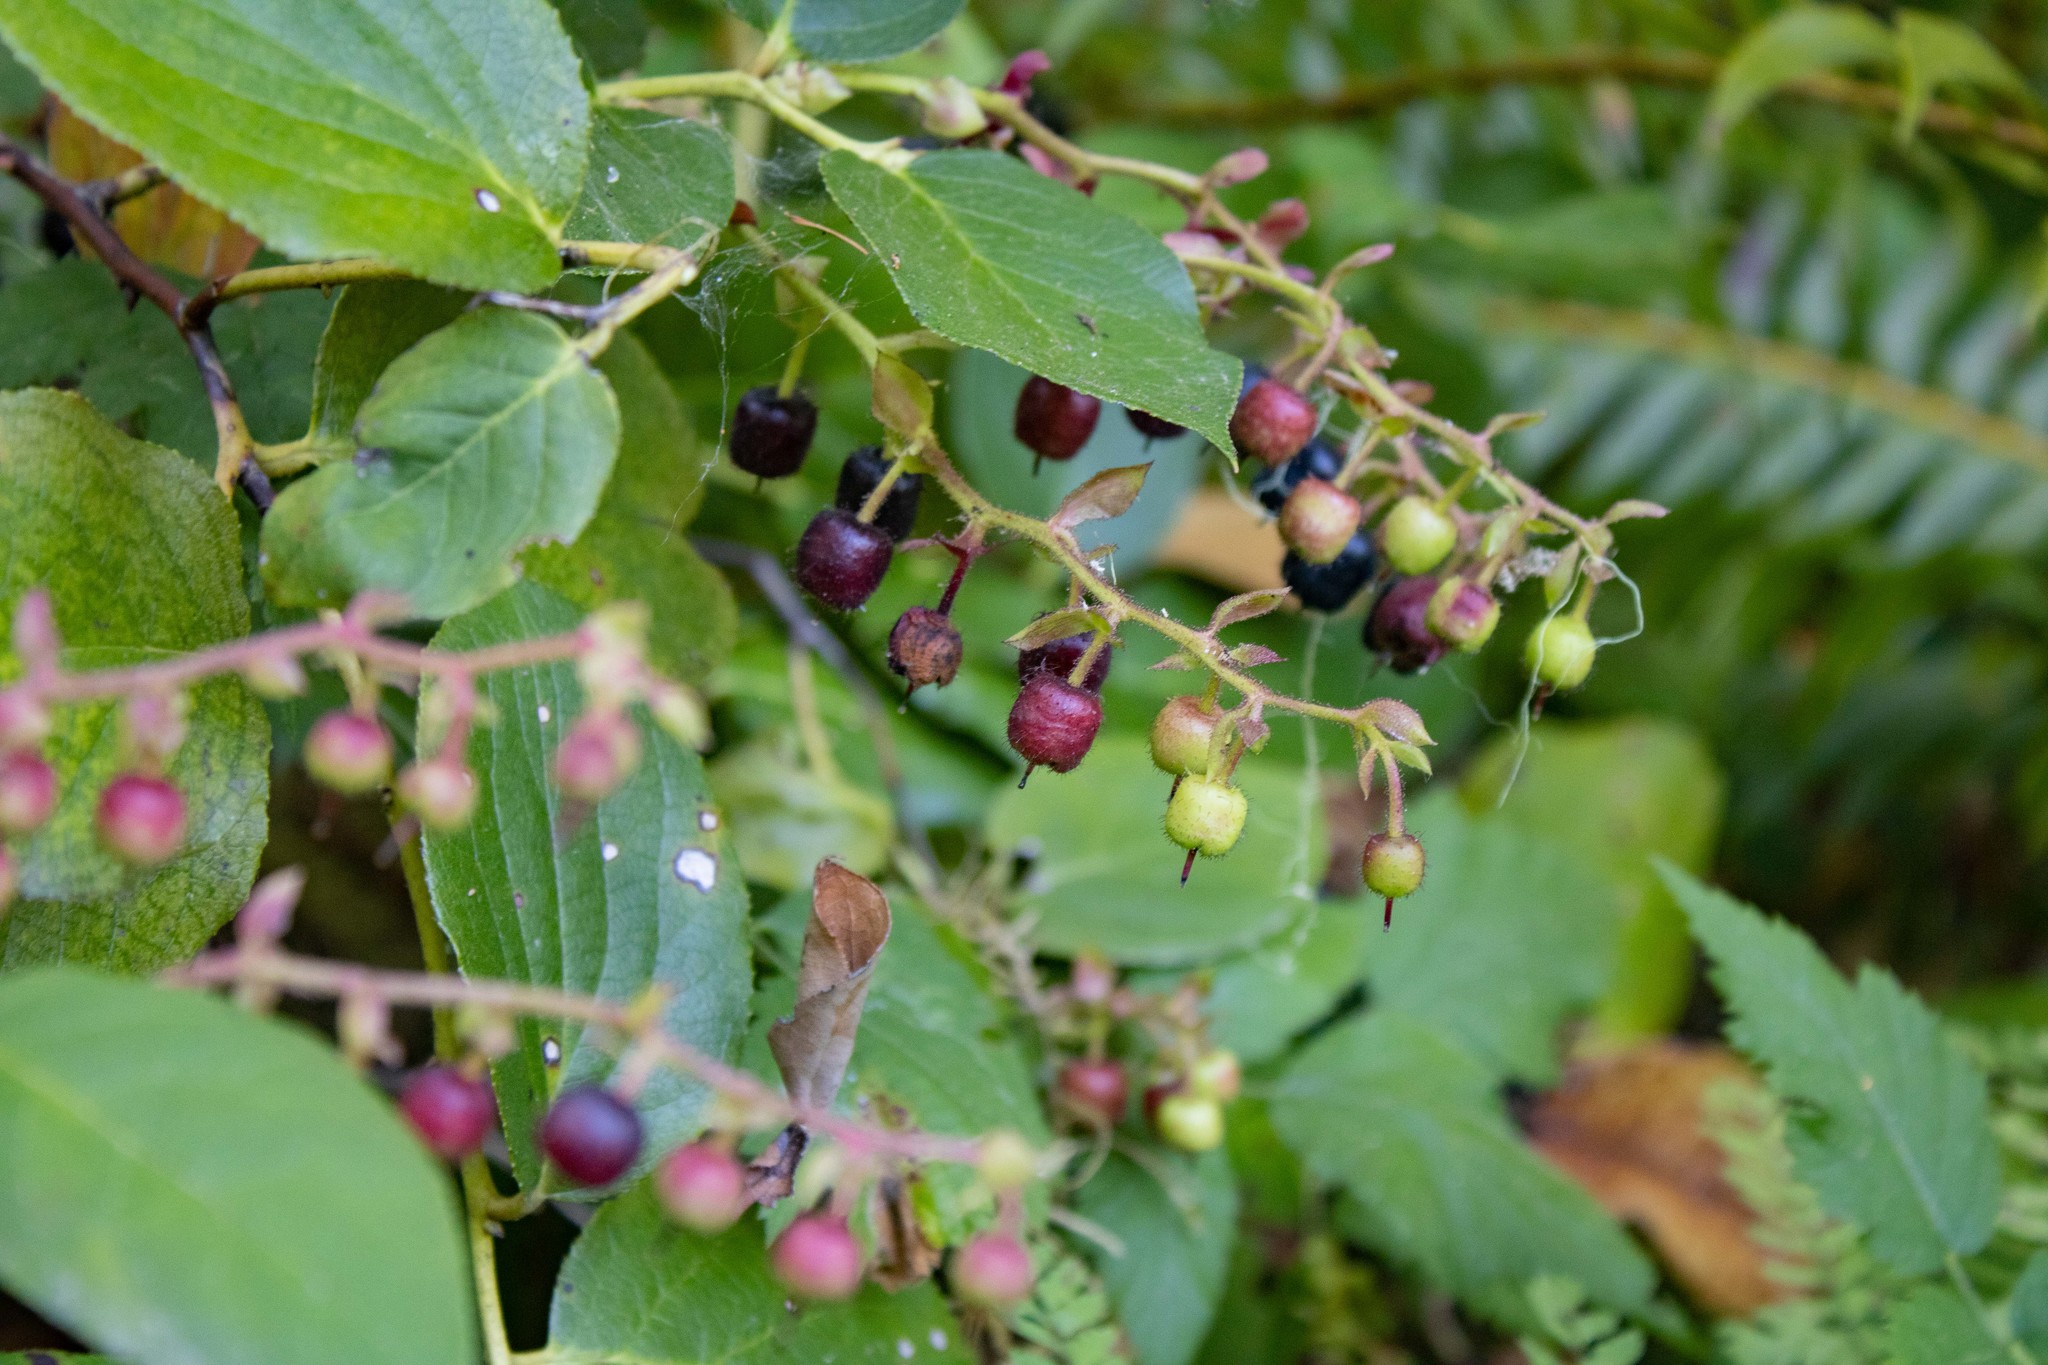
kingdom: Plantae
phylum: Tracheophyta
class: Magnoliopsida
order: Ericales
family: Ericaceae
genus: Gaultheria
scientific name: Gaultheria shallon
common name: Shallon
